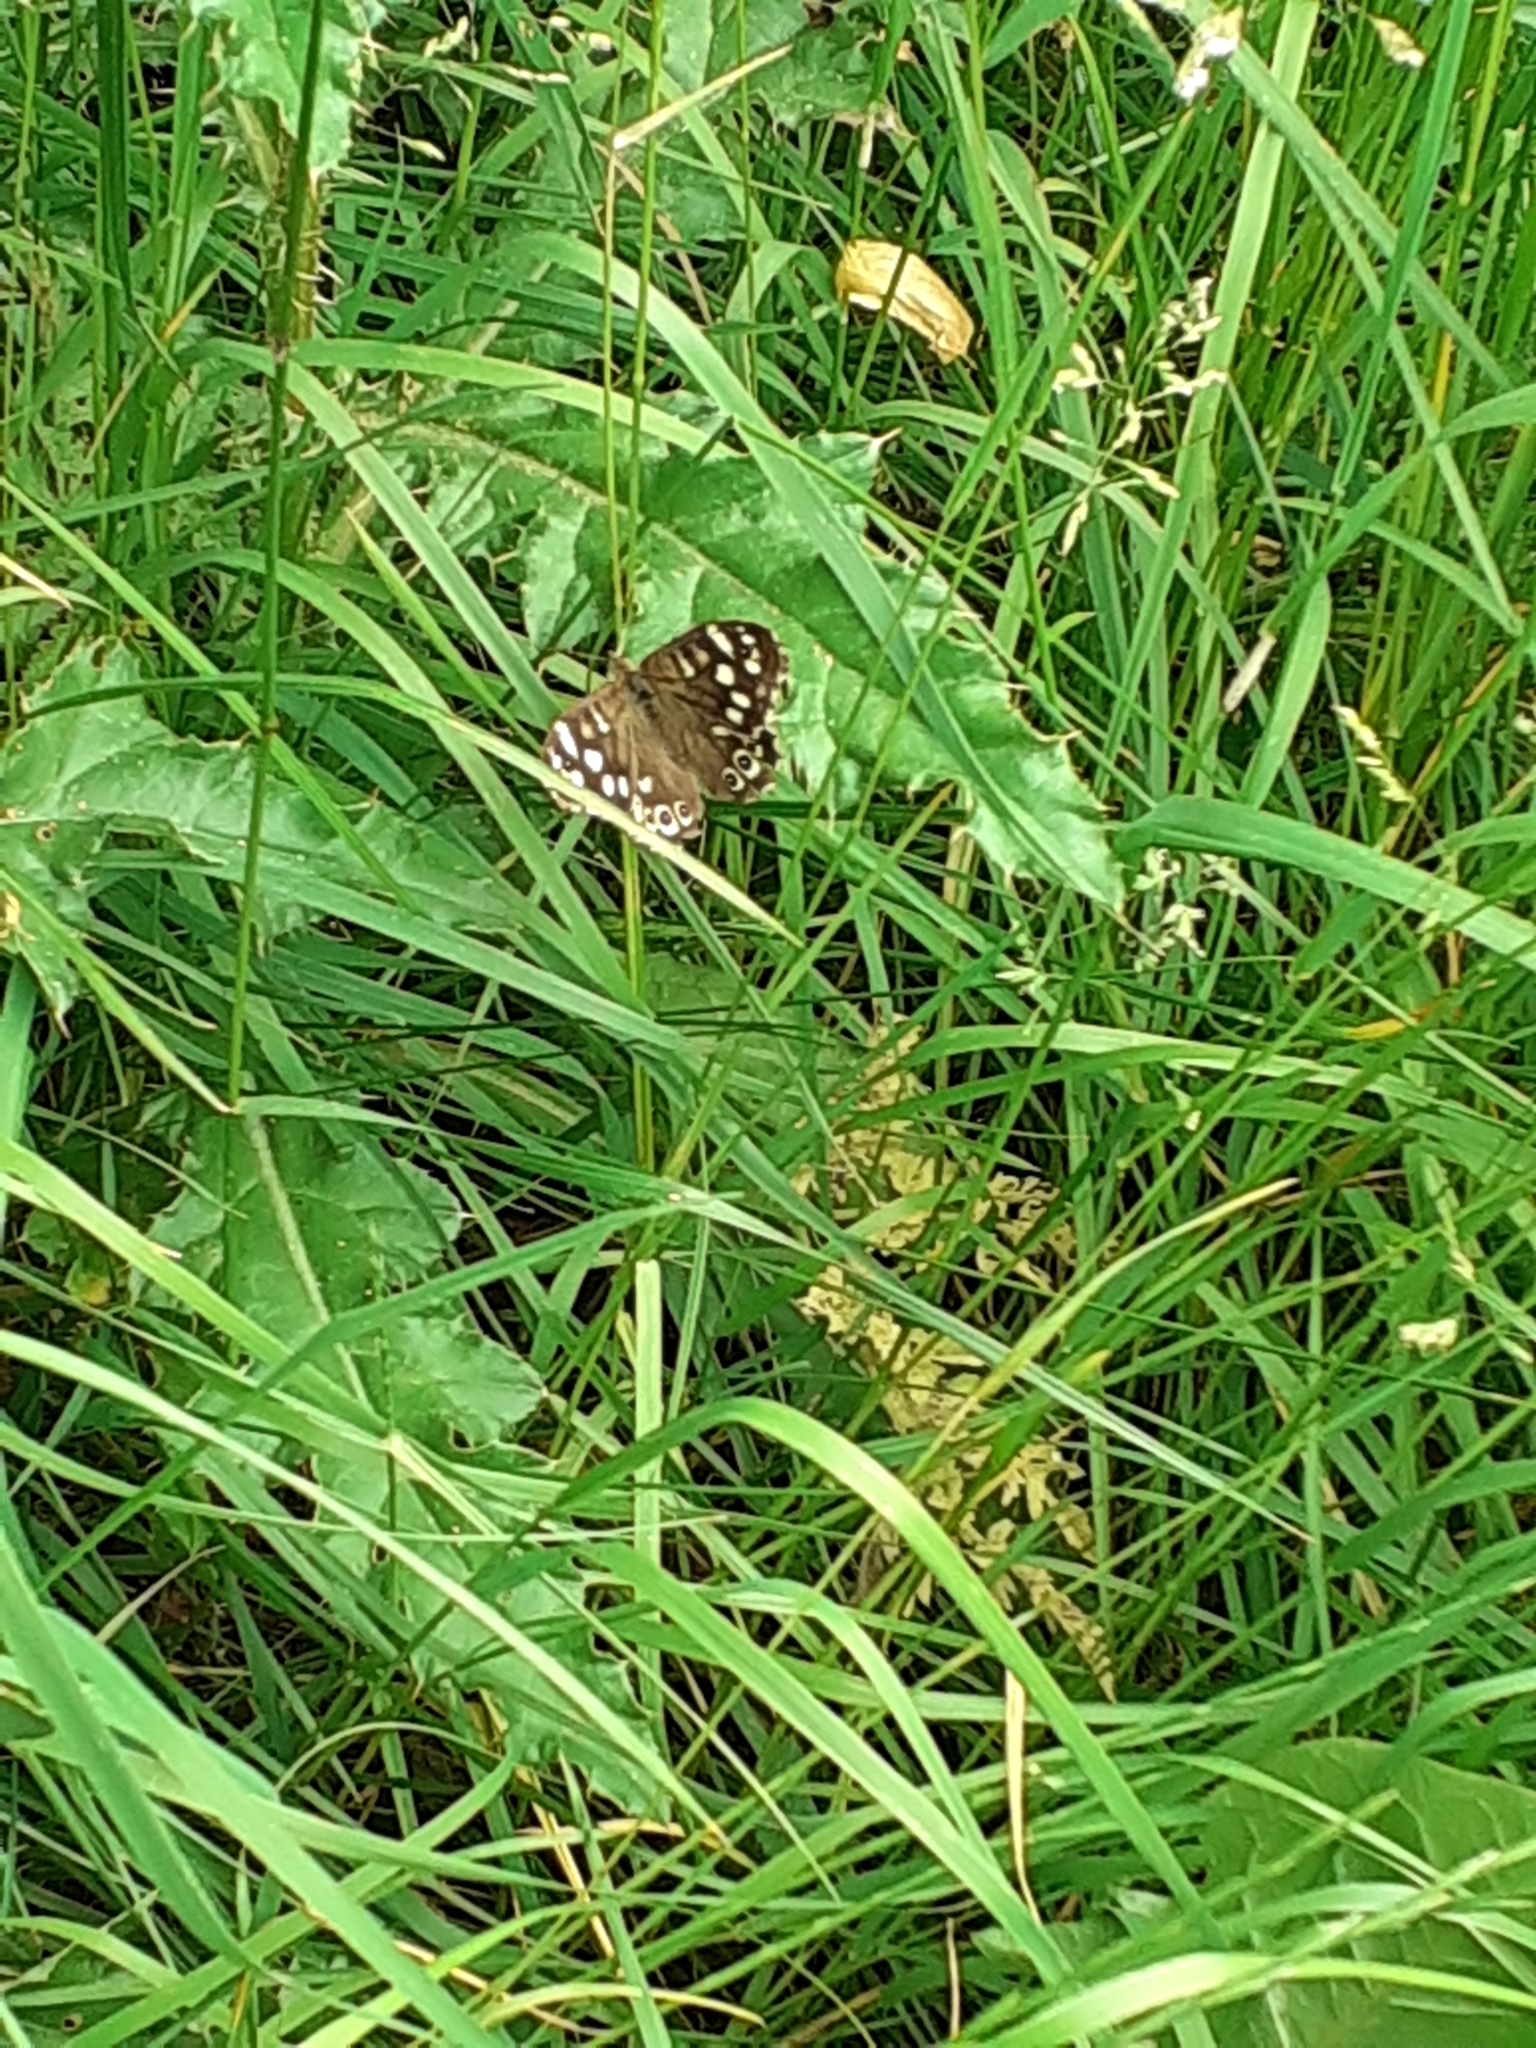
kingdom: Animalia
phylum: Arthropoda
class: Insecta
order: Lepidoptera
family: Nymphalidae
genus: Pararge
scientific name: Pararge aegeria
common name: Speckled wood
